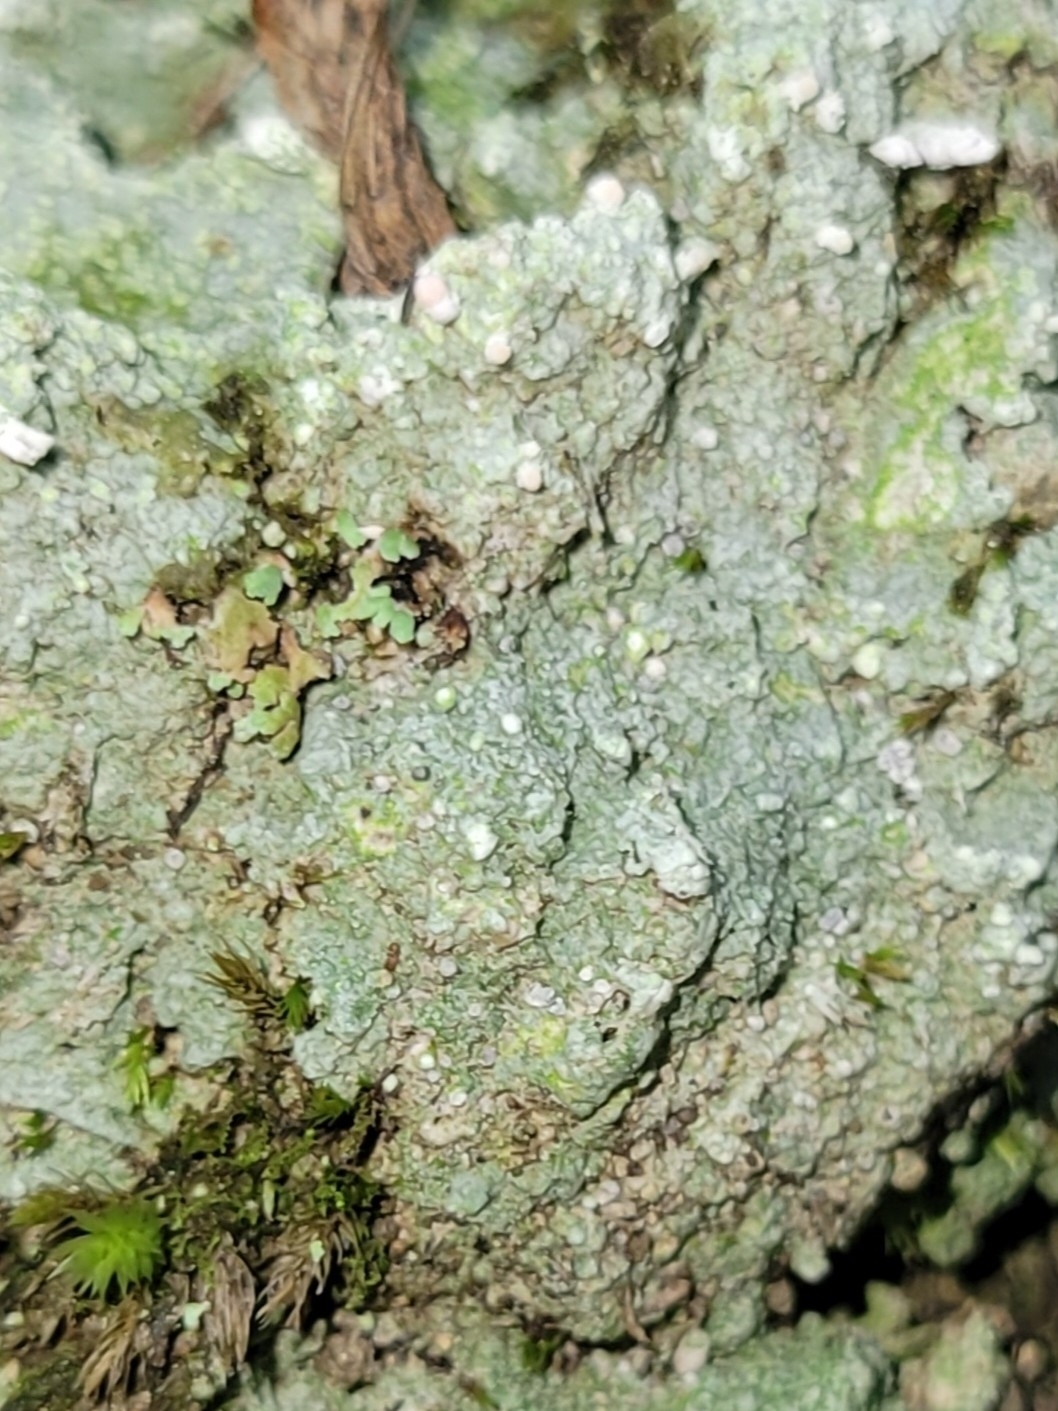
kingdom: Fungi
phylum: Ascomycota
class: Lecanoromycetes
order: Pertusariales
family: Icmadophilaceae
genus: Dibaeis
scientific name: Dibaeis baeomyces
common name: Pink earth lichen
